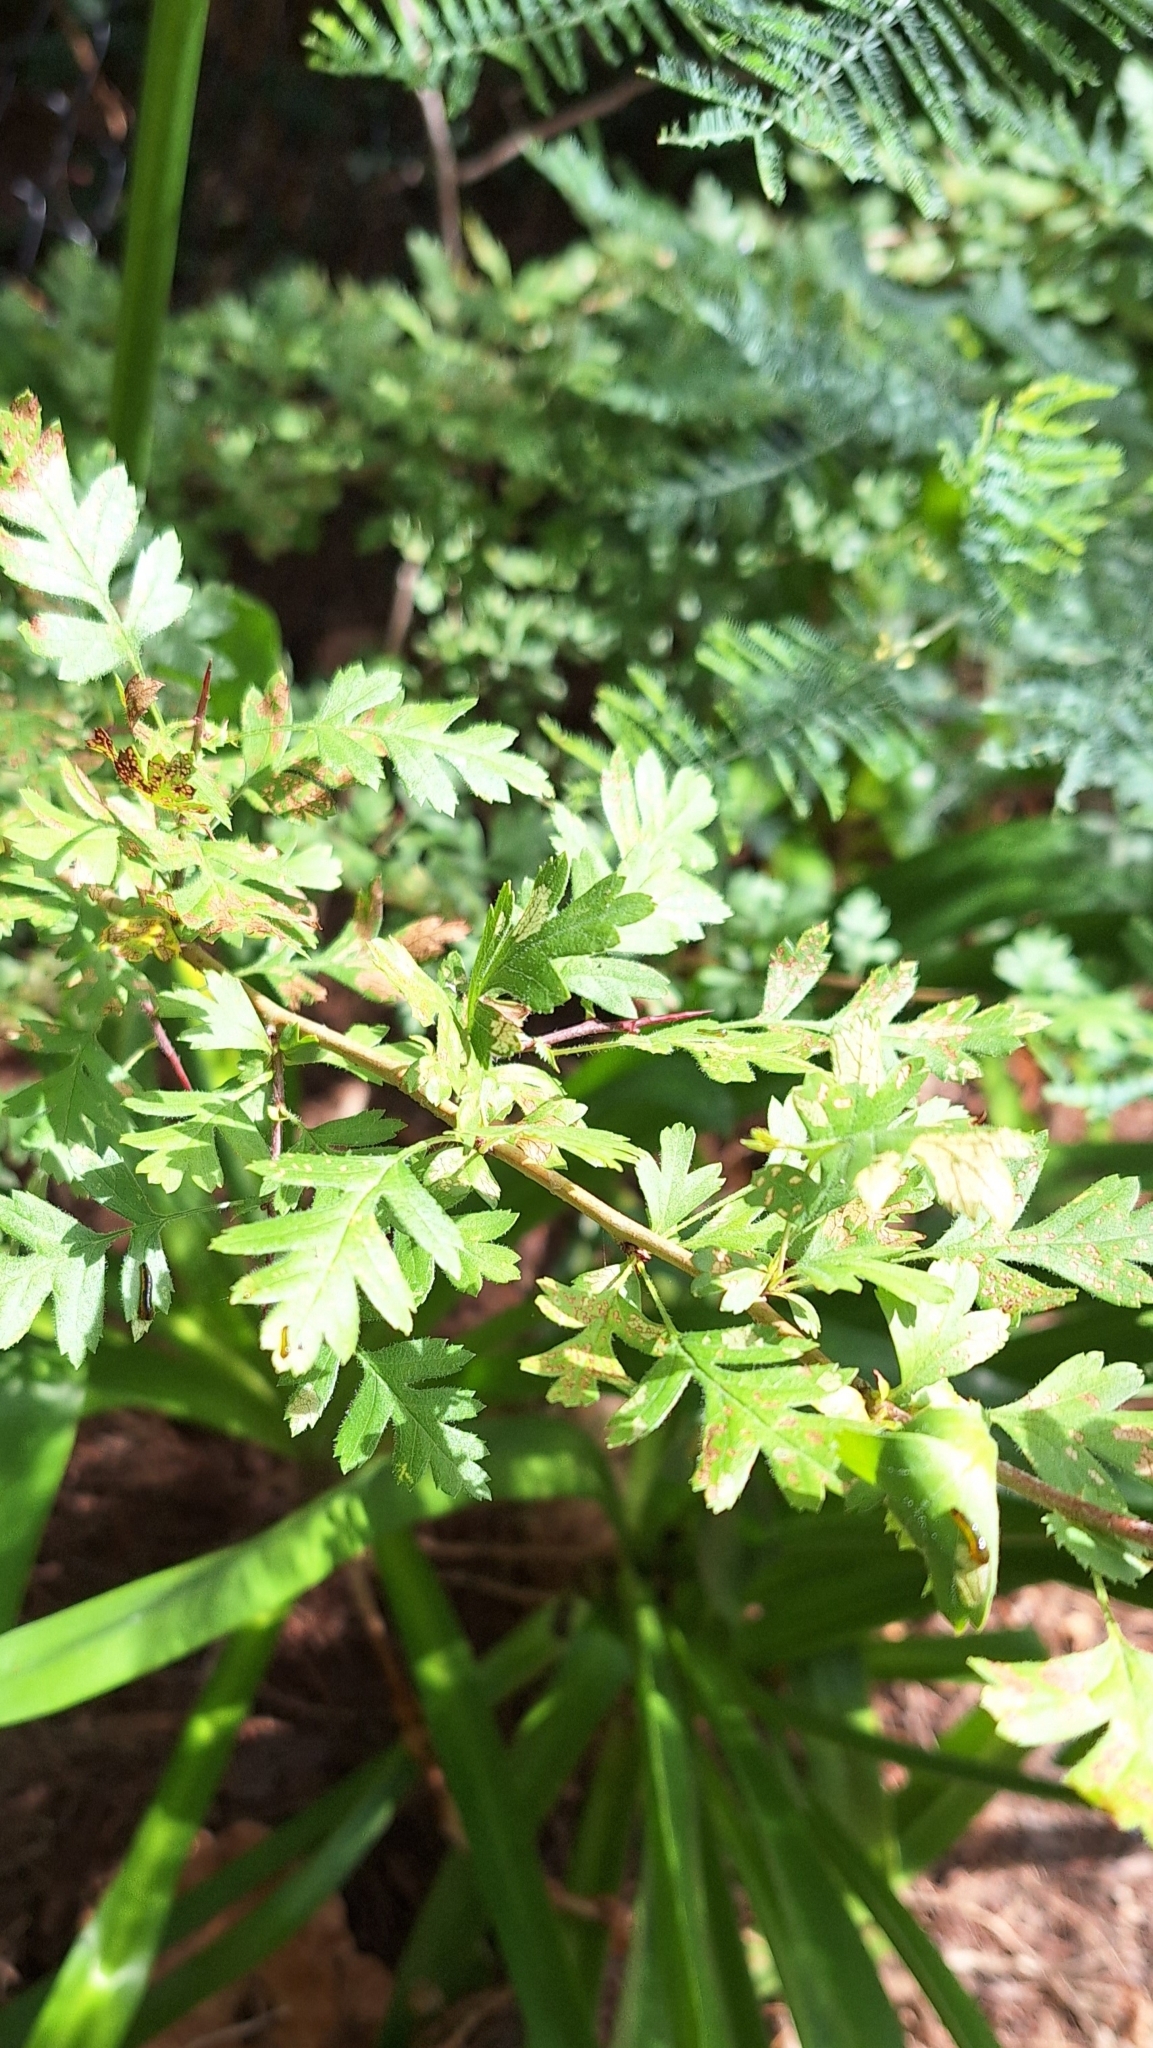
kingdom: Plantae
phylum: Tracheophyta
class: Magnoliopsida
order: Rosales
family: Rosaceae
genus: Crataegus
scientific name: Crataegus monogyna
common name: Hawthorn
